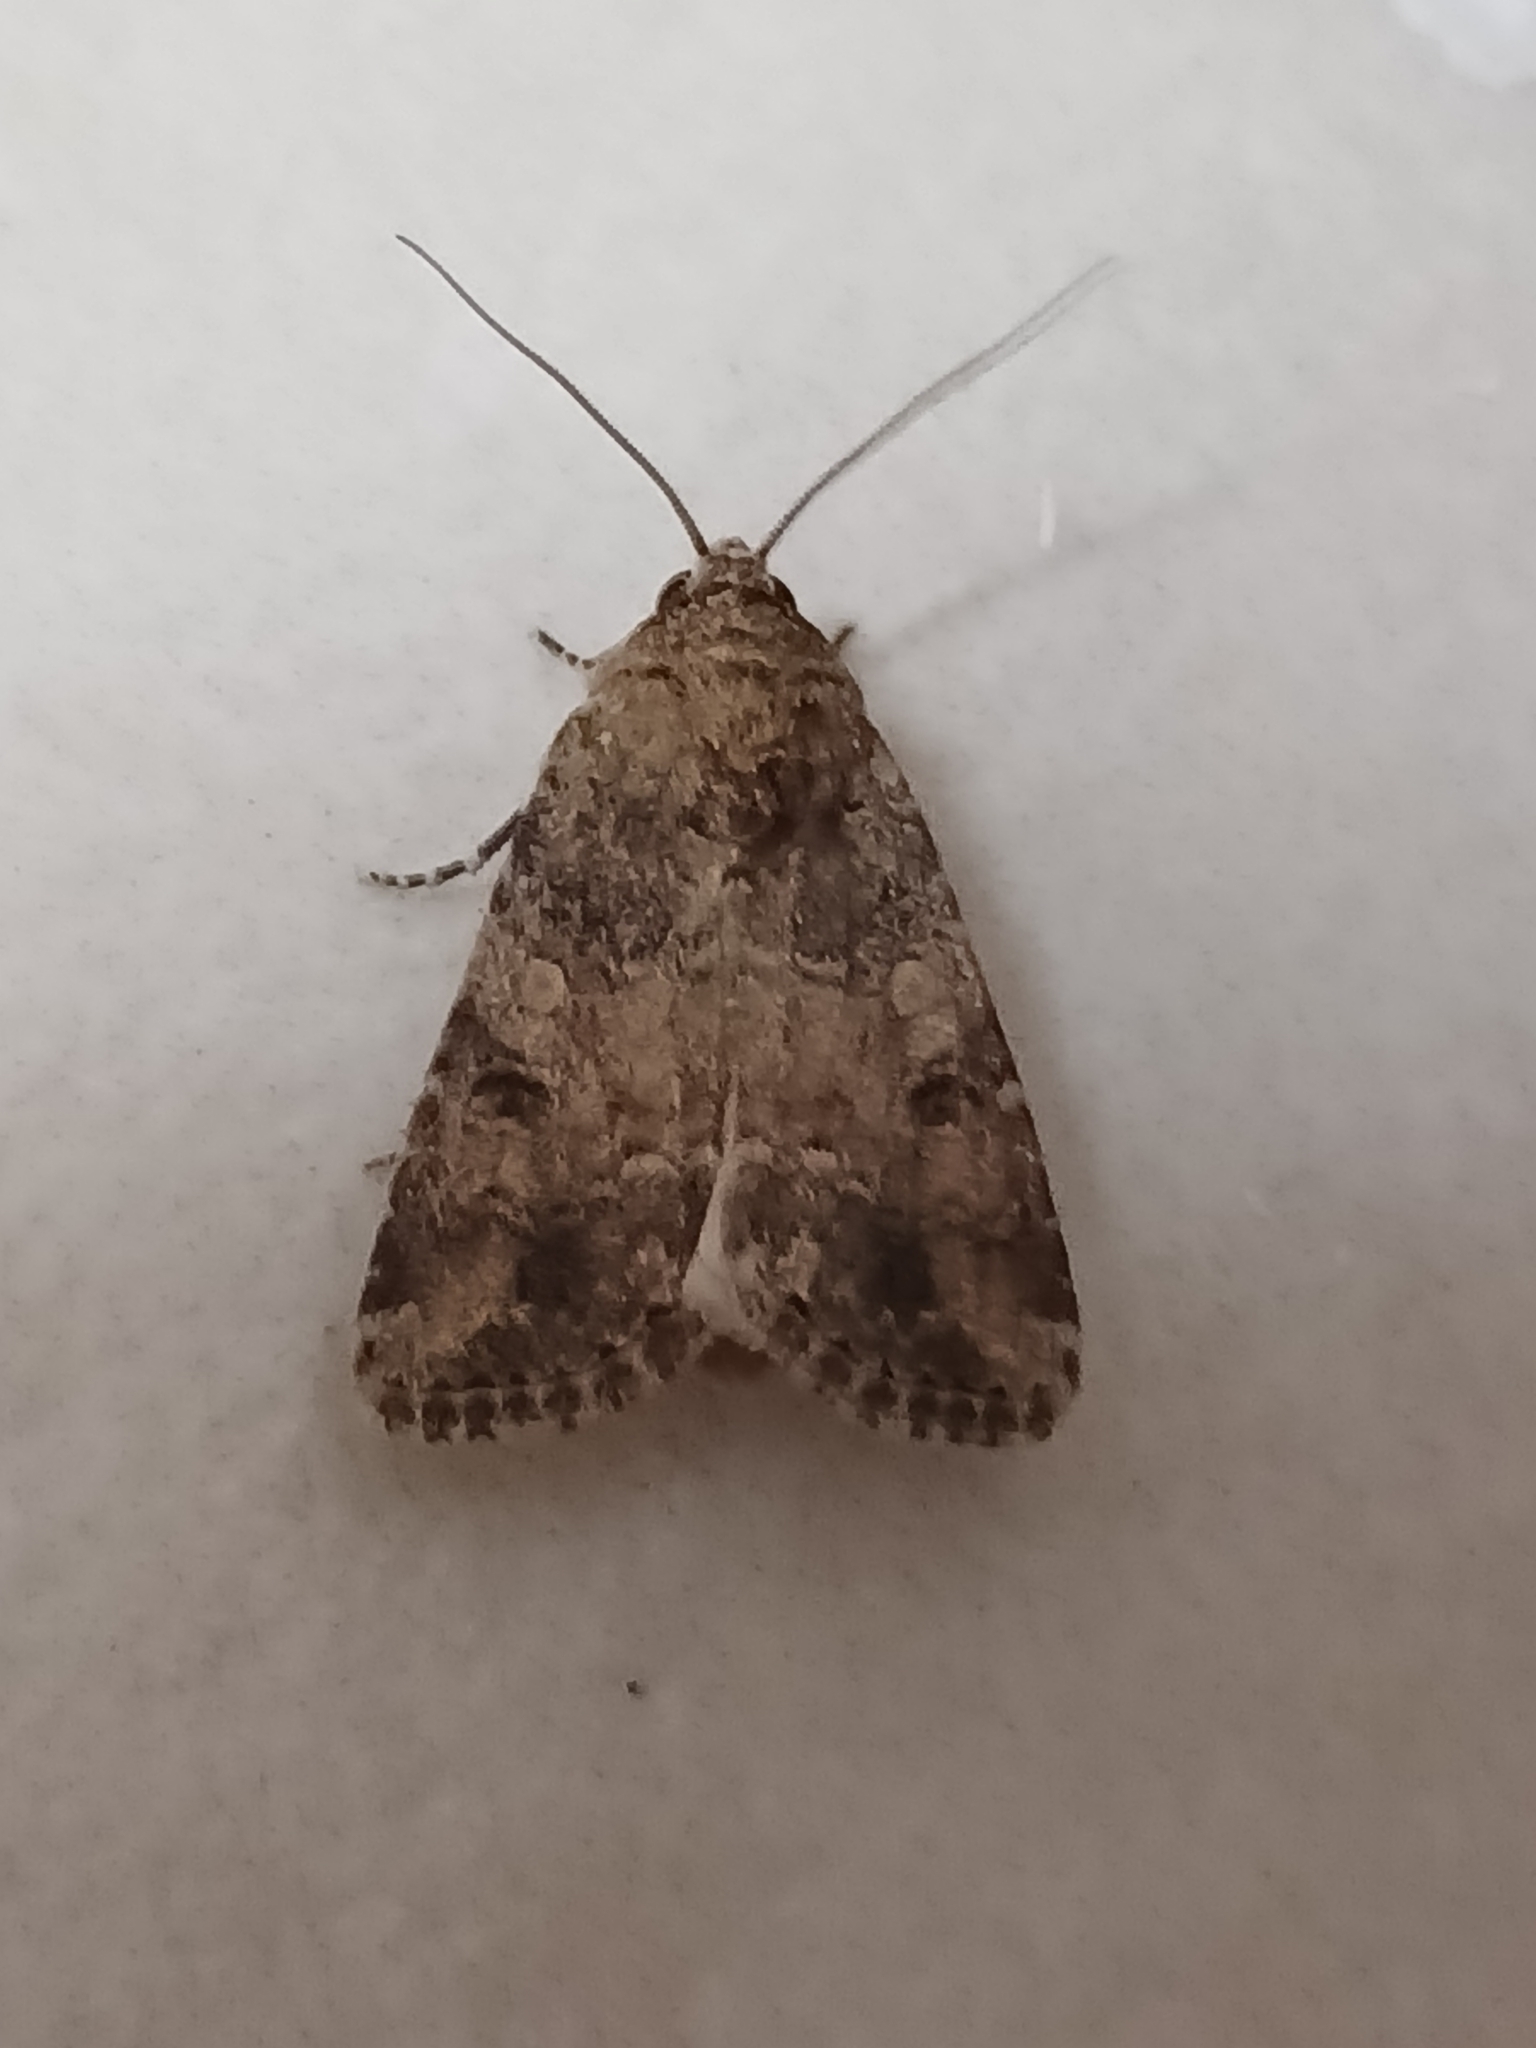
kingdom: Animalia
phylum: Arthropoda
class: Insecta
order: Lepidoptera
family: Noctuidae
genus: Spodoptera
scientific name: Spodoptera cilium
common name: Dark mottled willow
